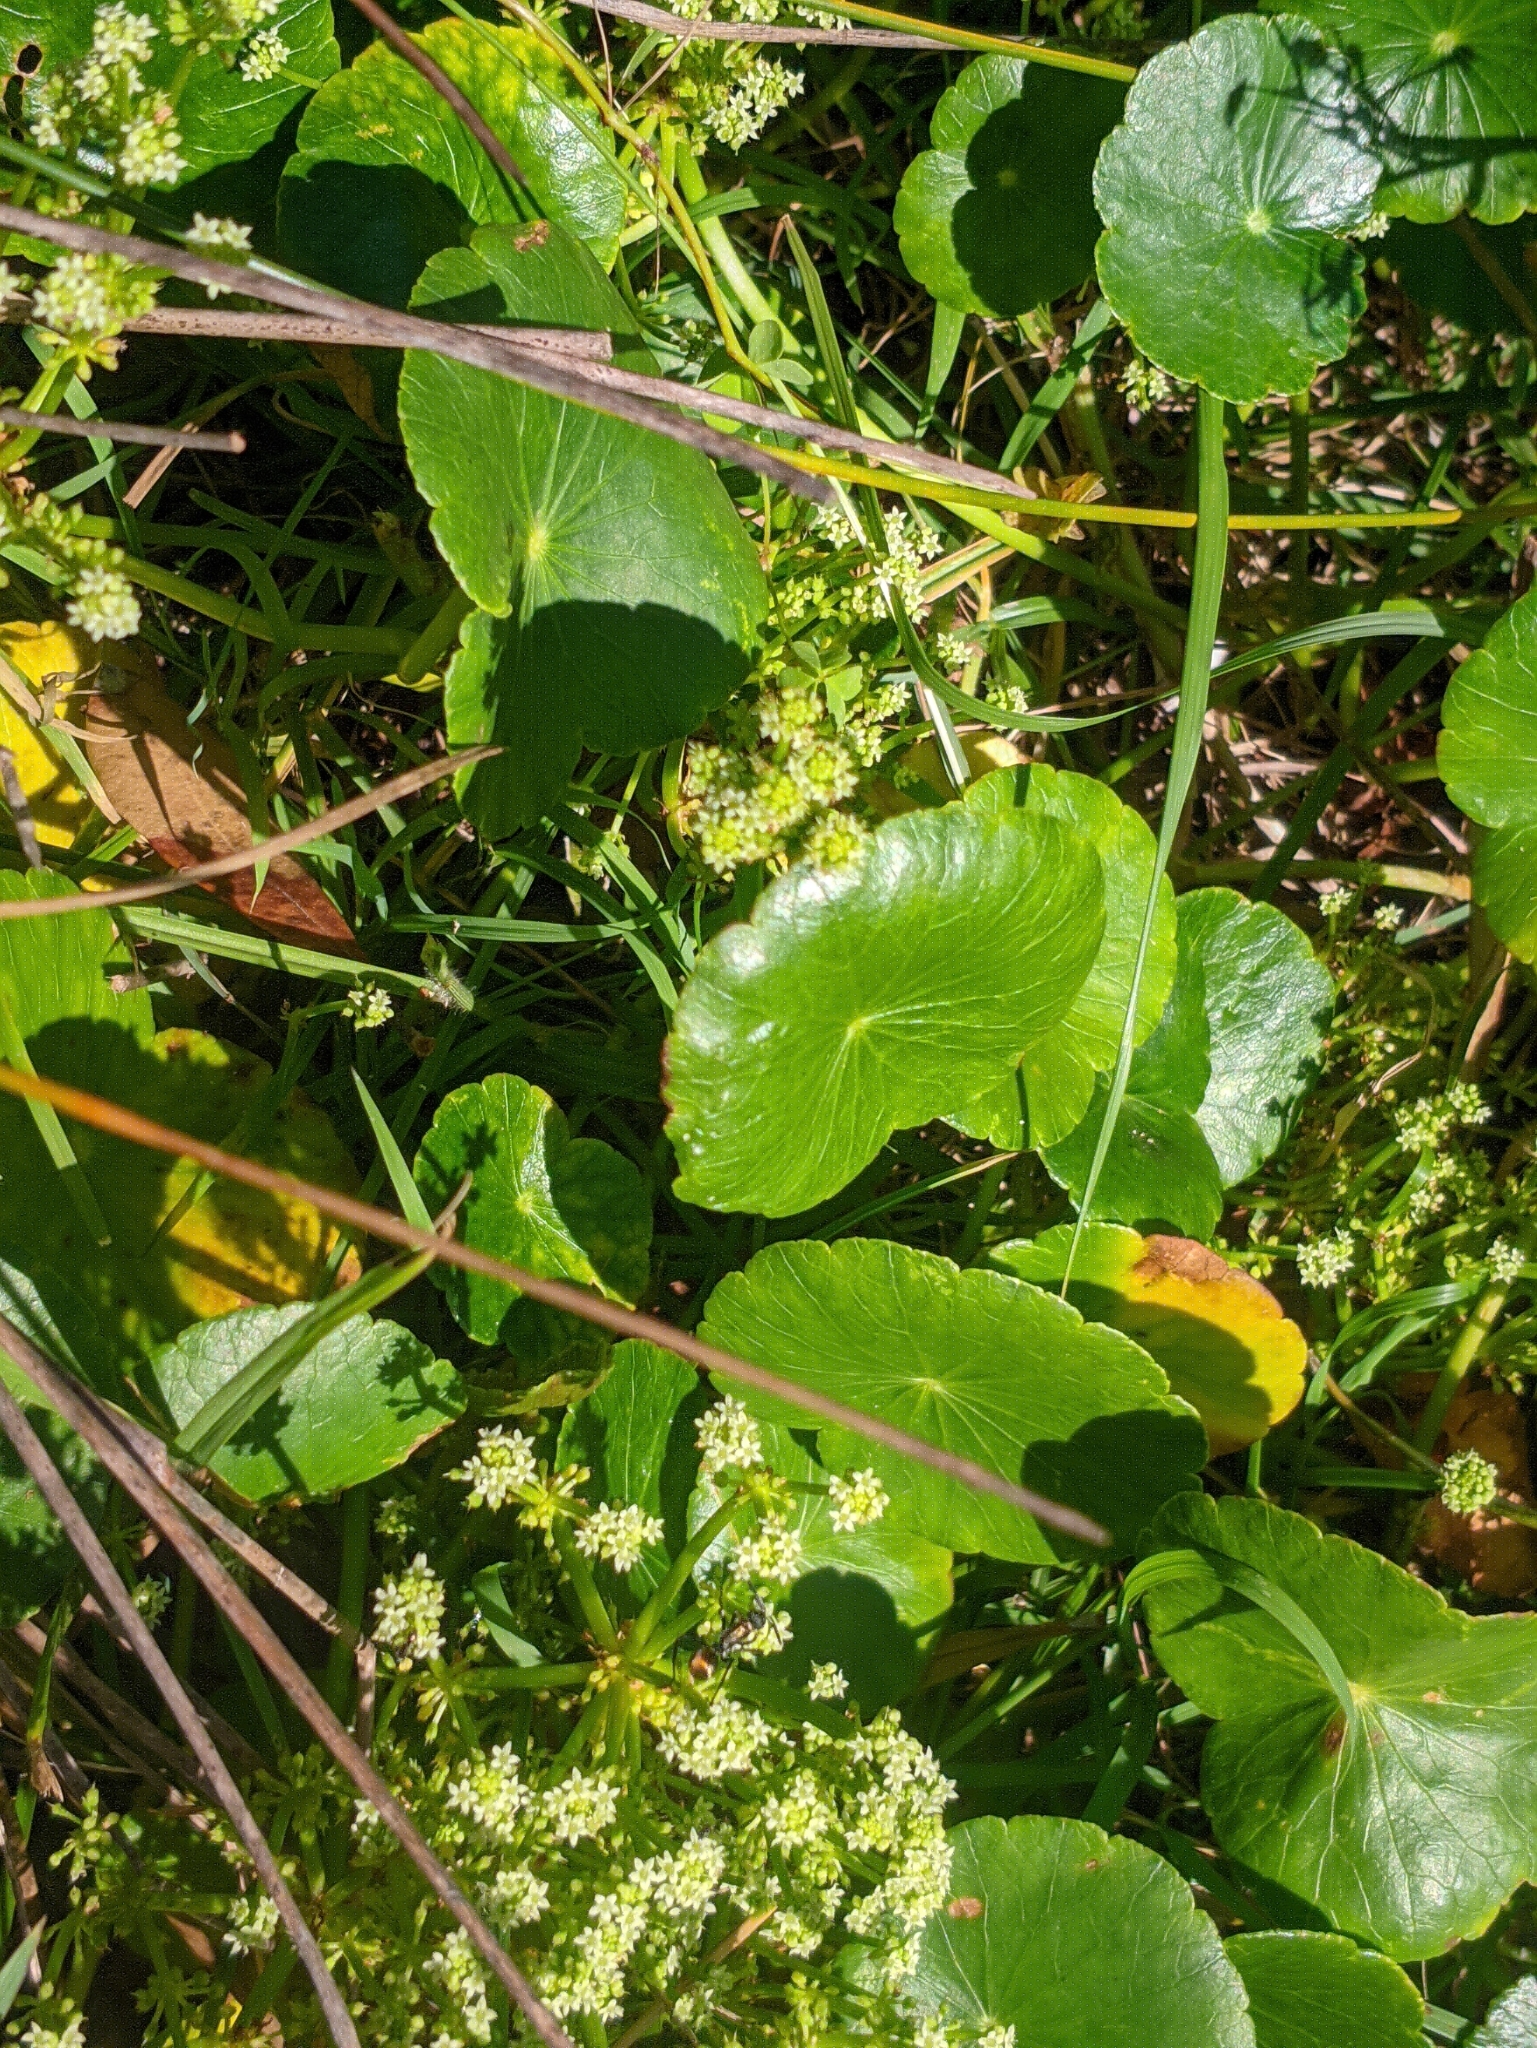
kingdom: Plantae
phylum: Tracheophyta
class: Magnoliopsida
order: Apiales
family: Araliaceae
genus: Hydrocotyle
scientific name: Hydrocotyle bonariensis
